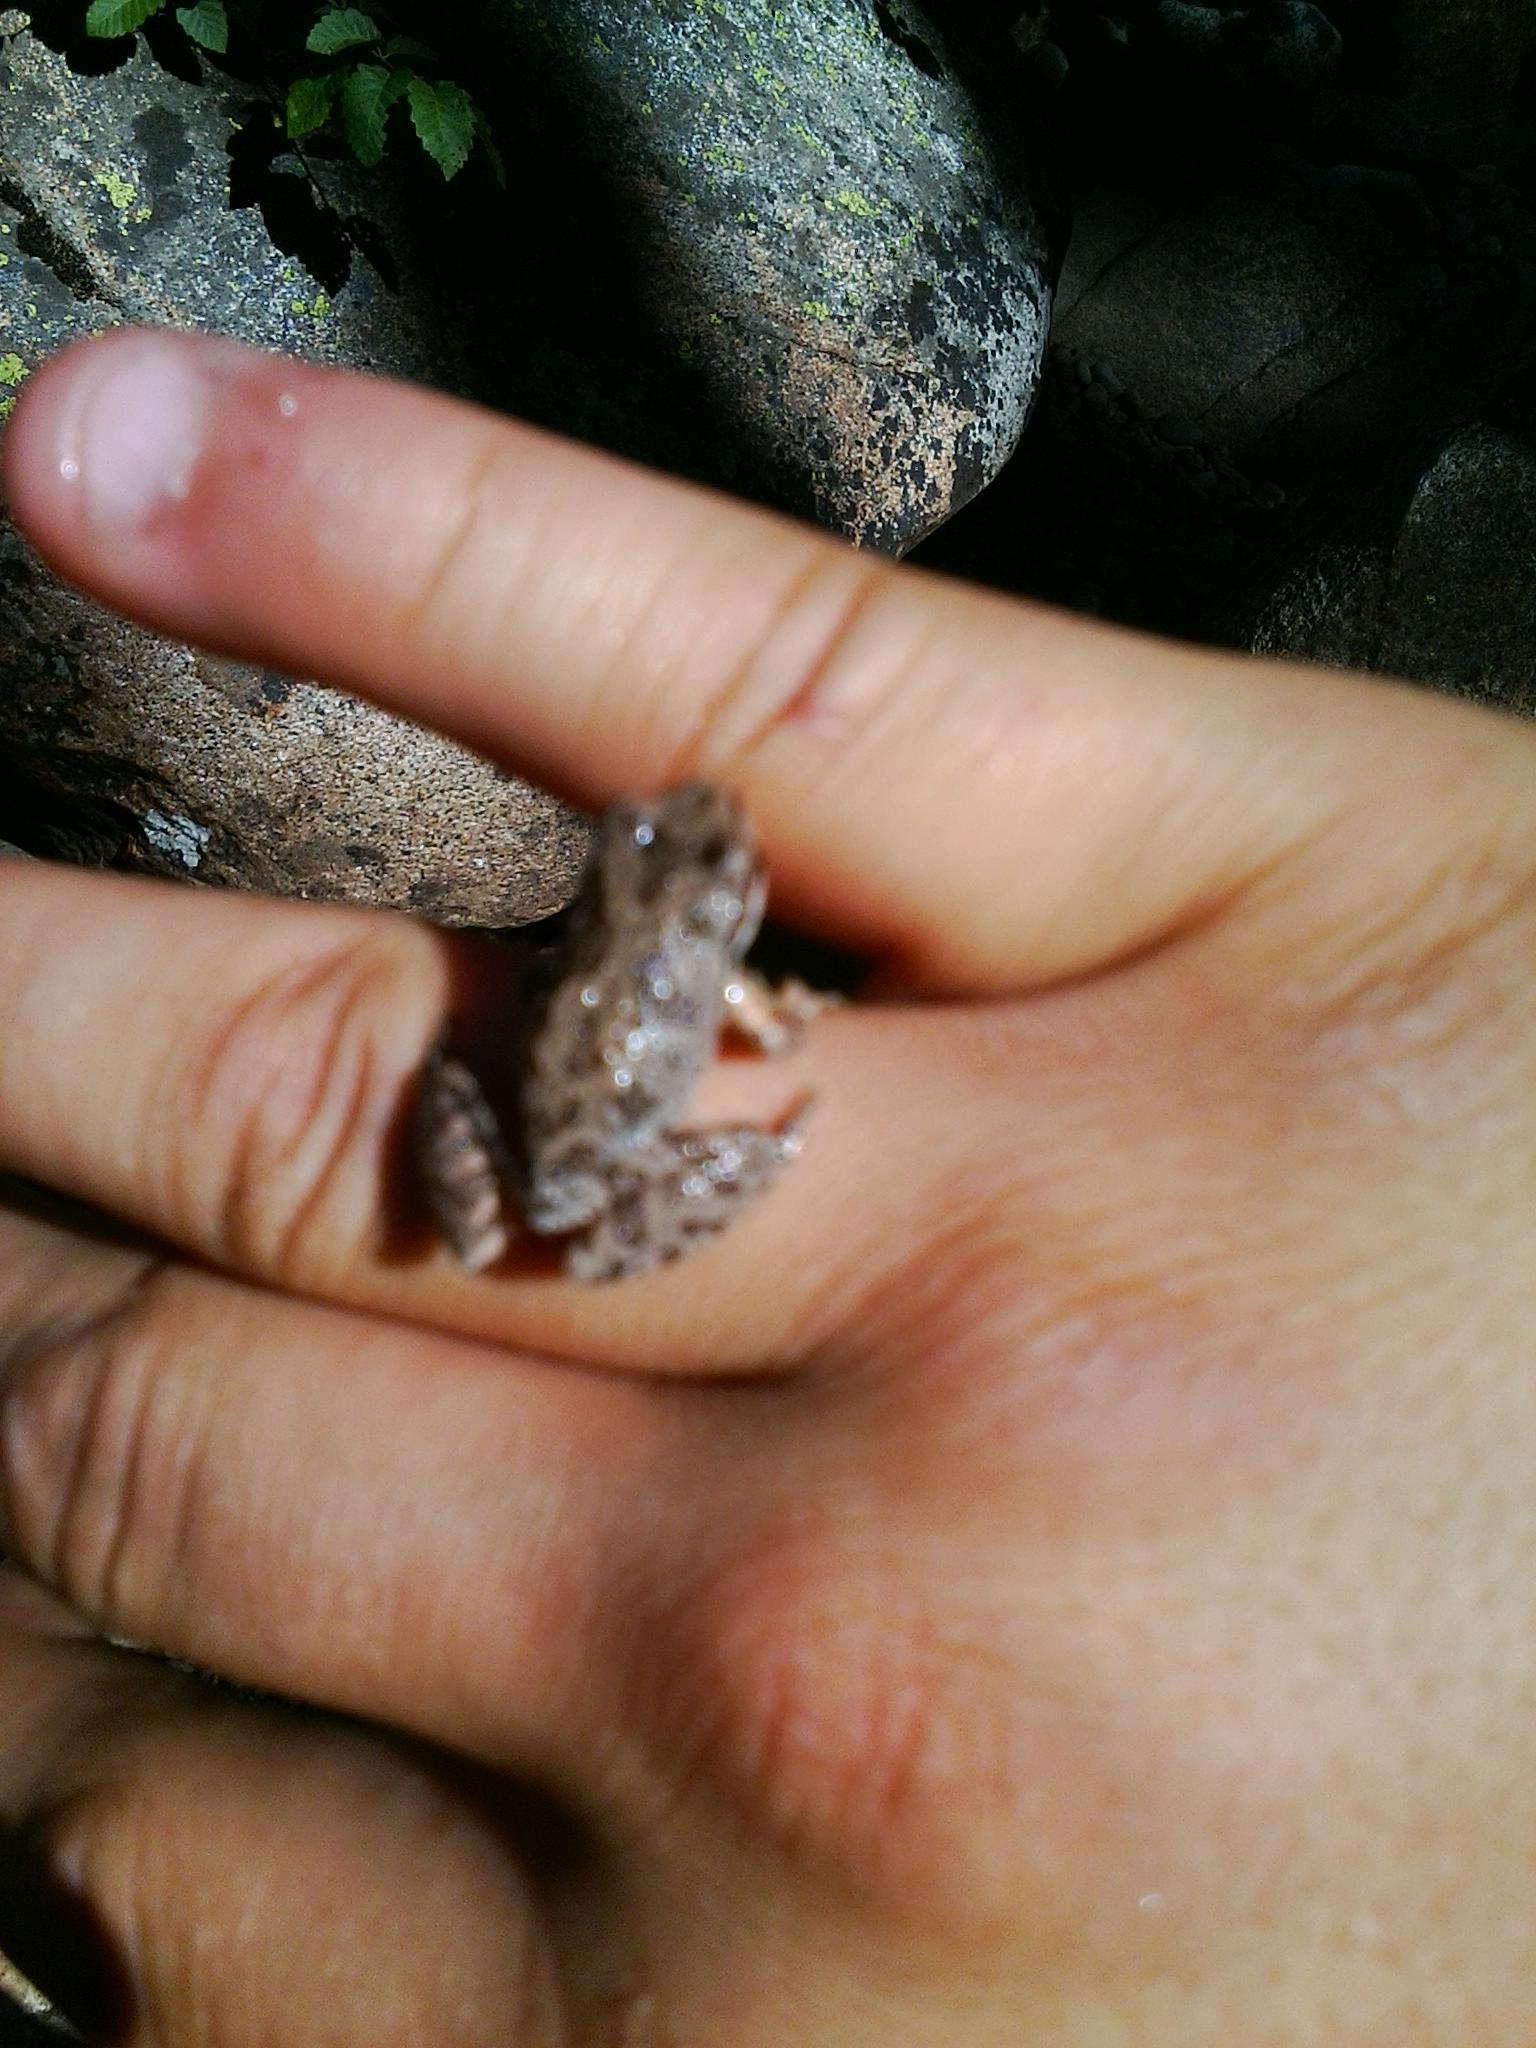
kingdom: Animalia
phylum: Chordata
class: Amphibia
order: Anura
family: Hylidae
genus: Pseudacris
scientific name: Pseudacris regilla
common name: Pacific chorus frog
